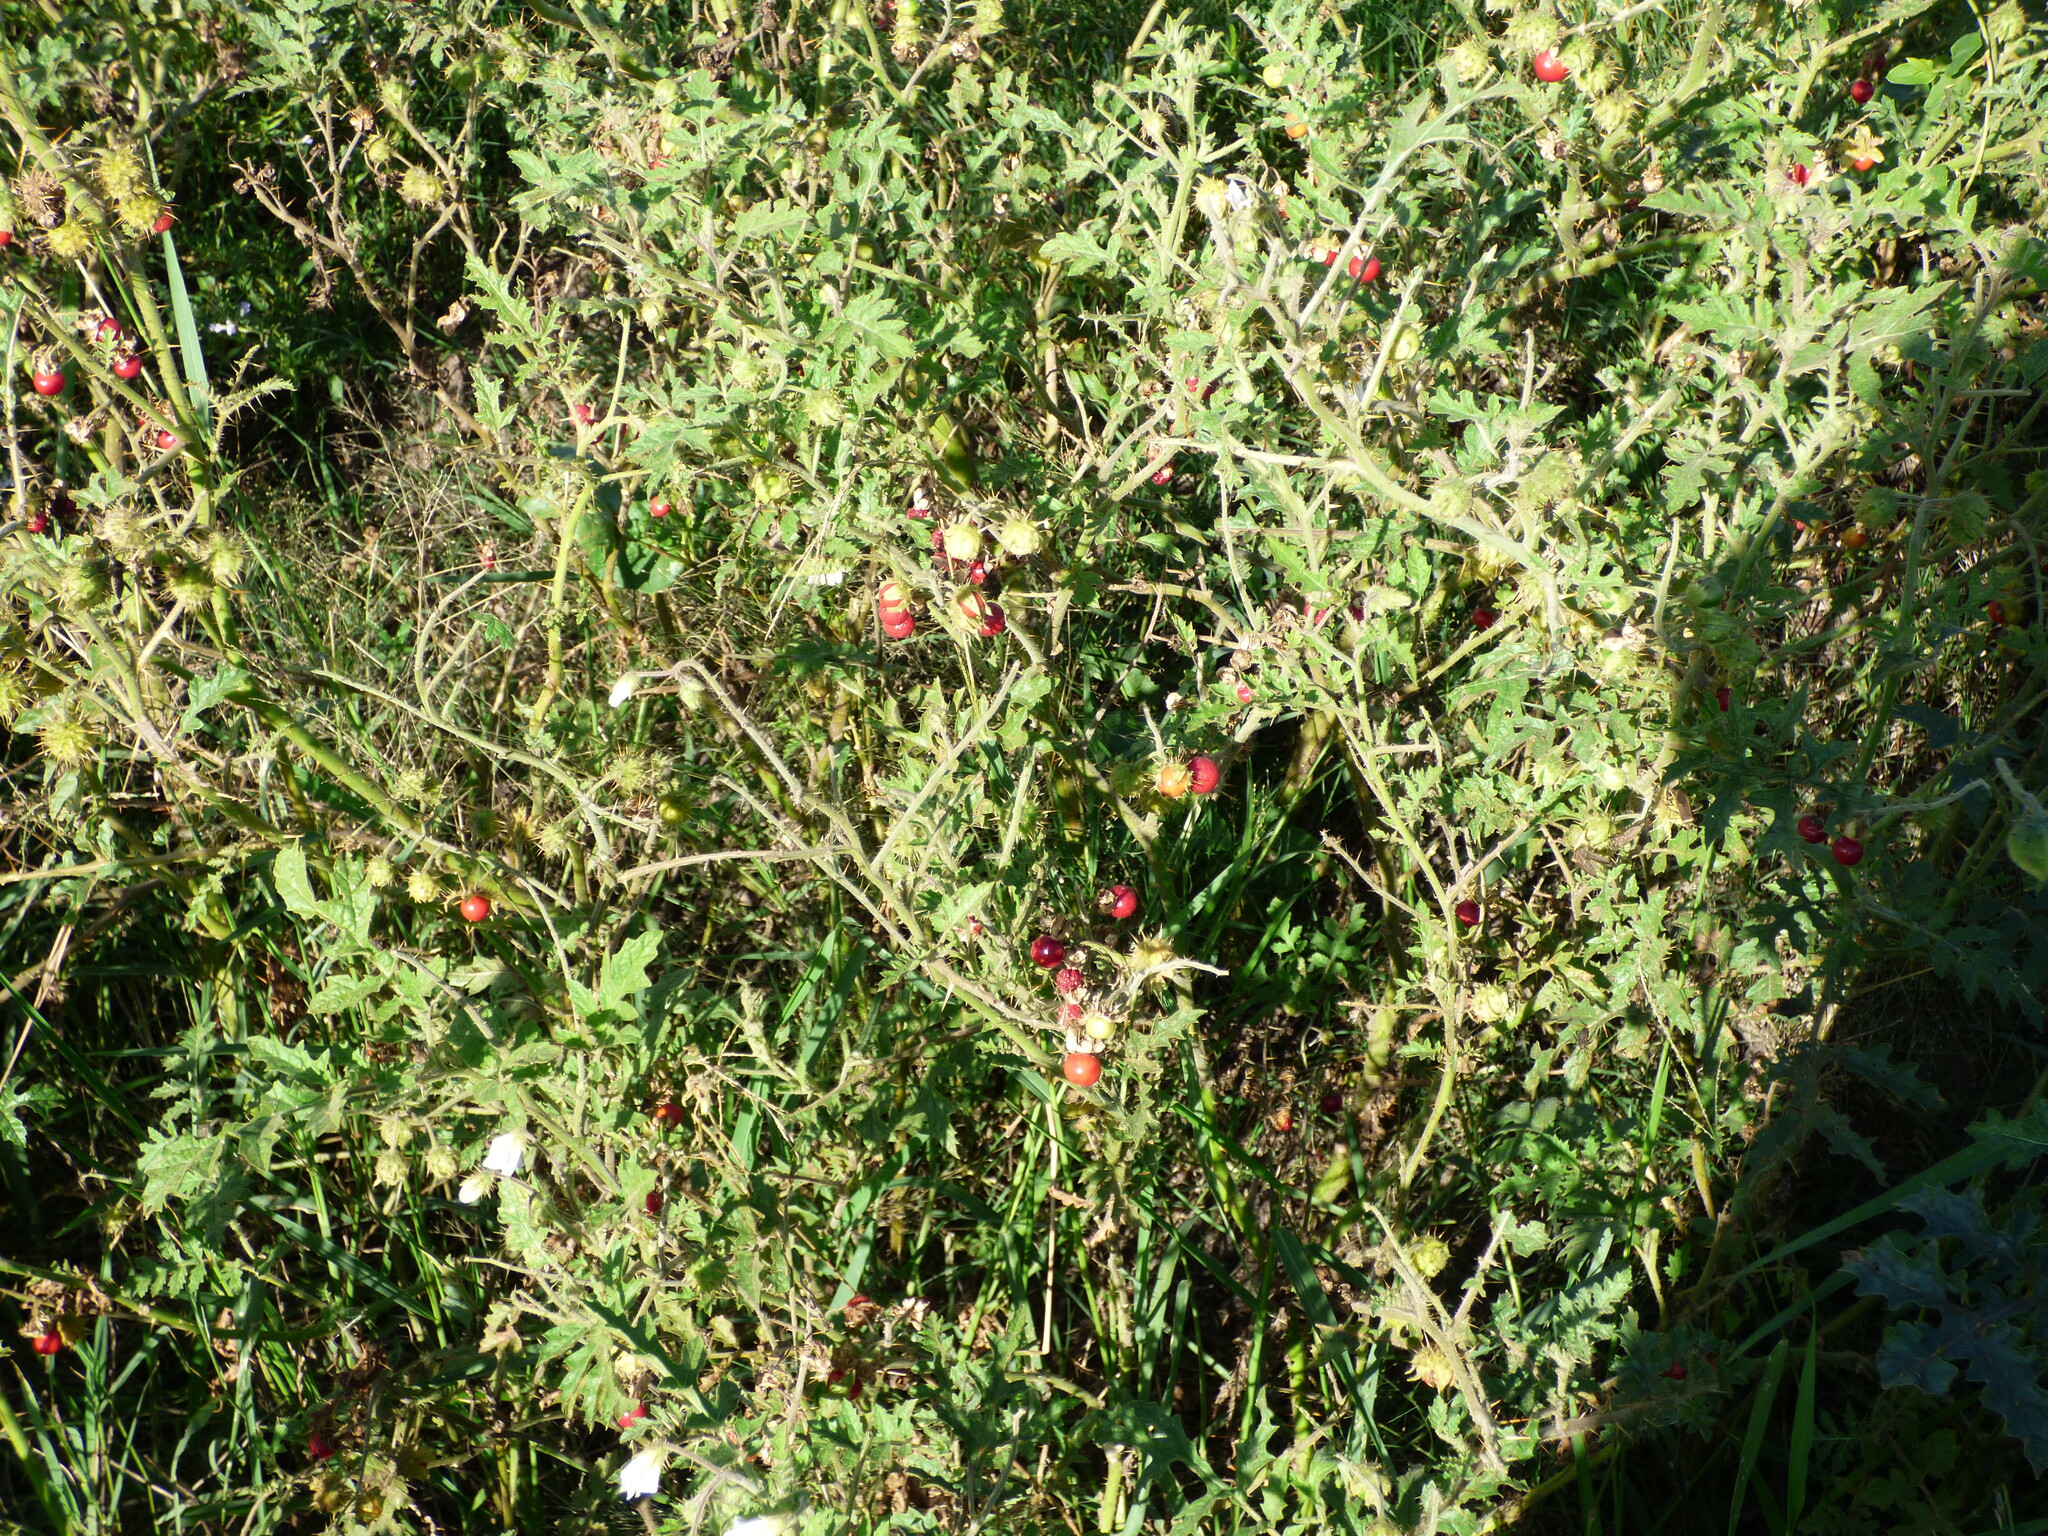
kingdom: Plantae
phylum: Tracheophyta
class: Magnoliopsida
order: Solanales
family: Solanaceae
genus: Solanum
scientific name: Solanum sisymbriifolium
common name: Red buffalo-bur
